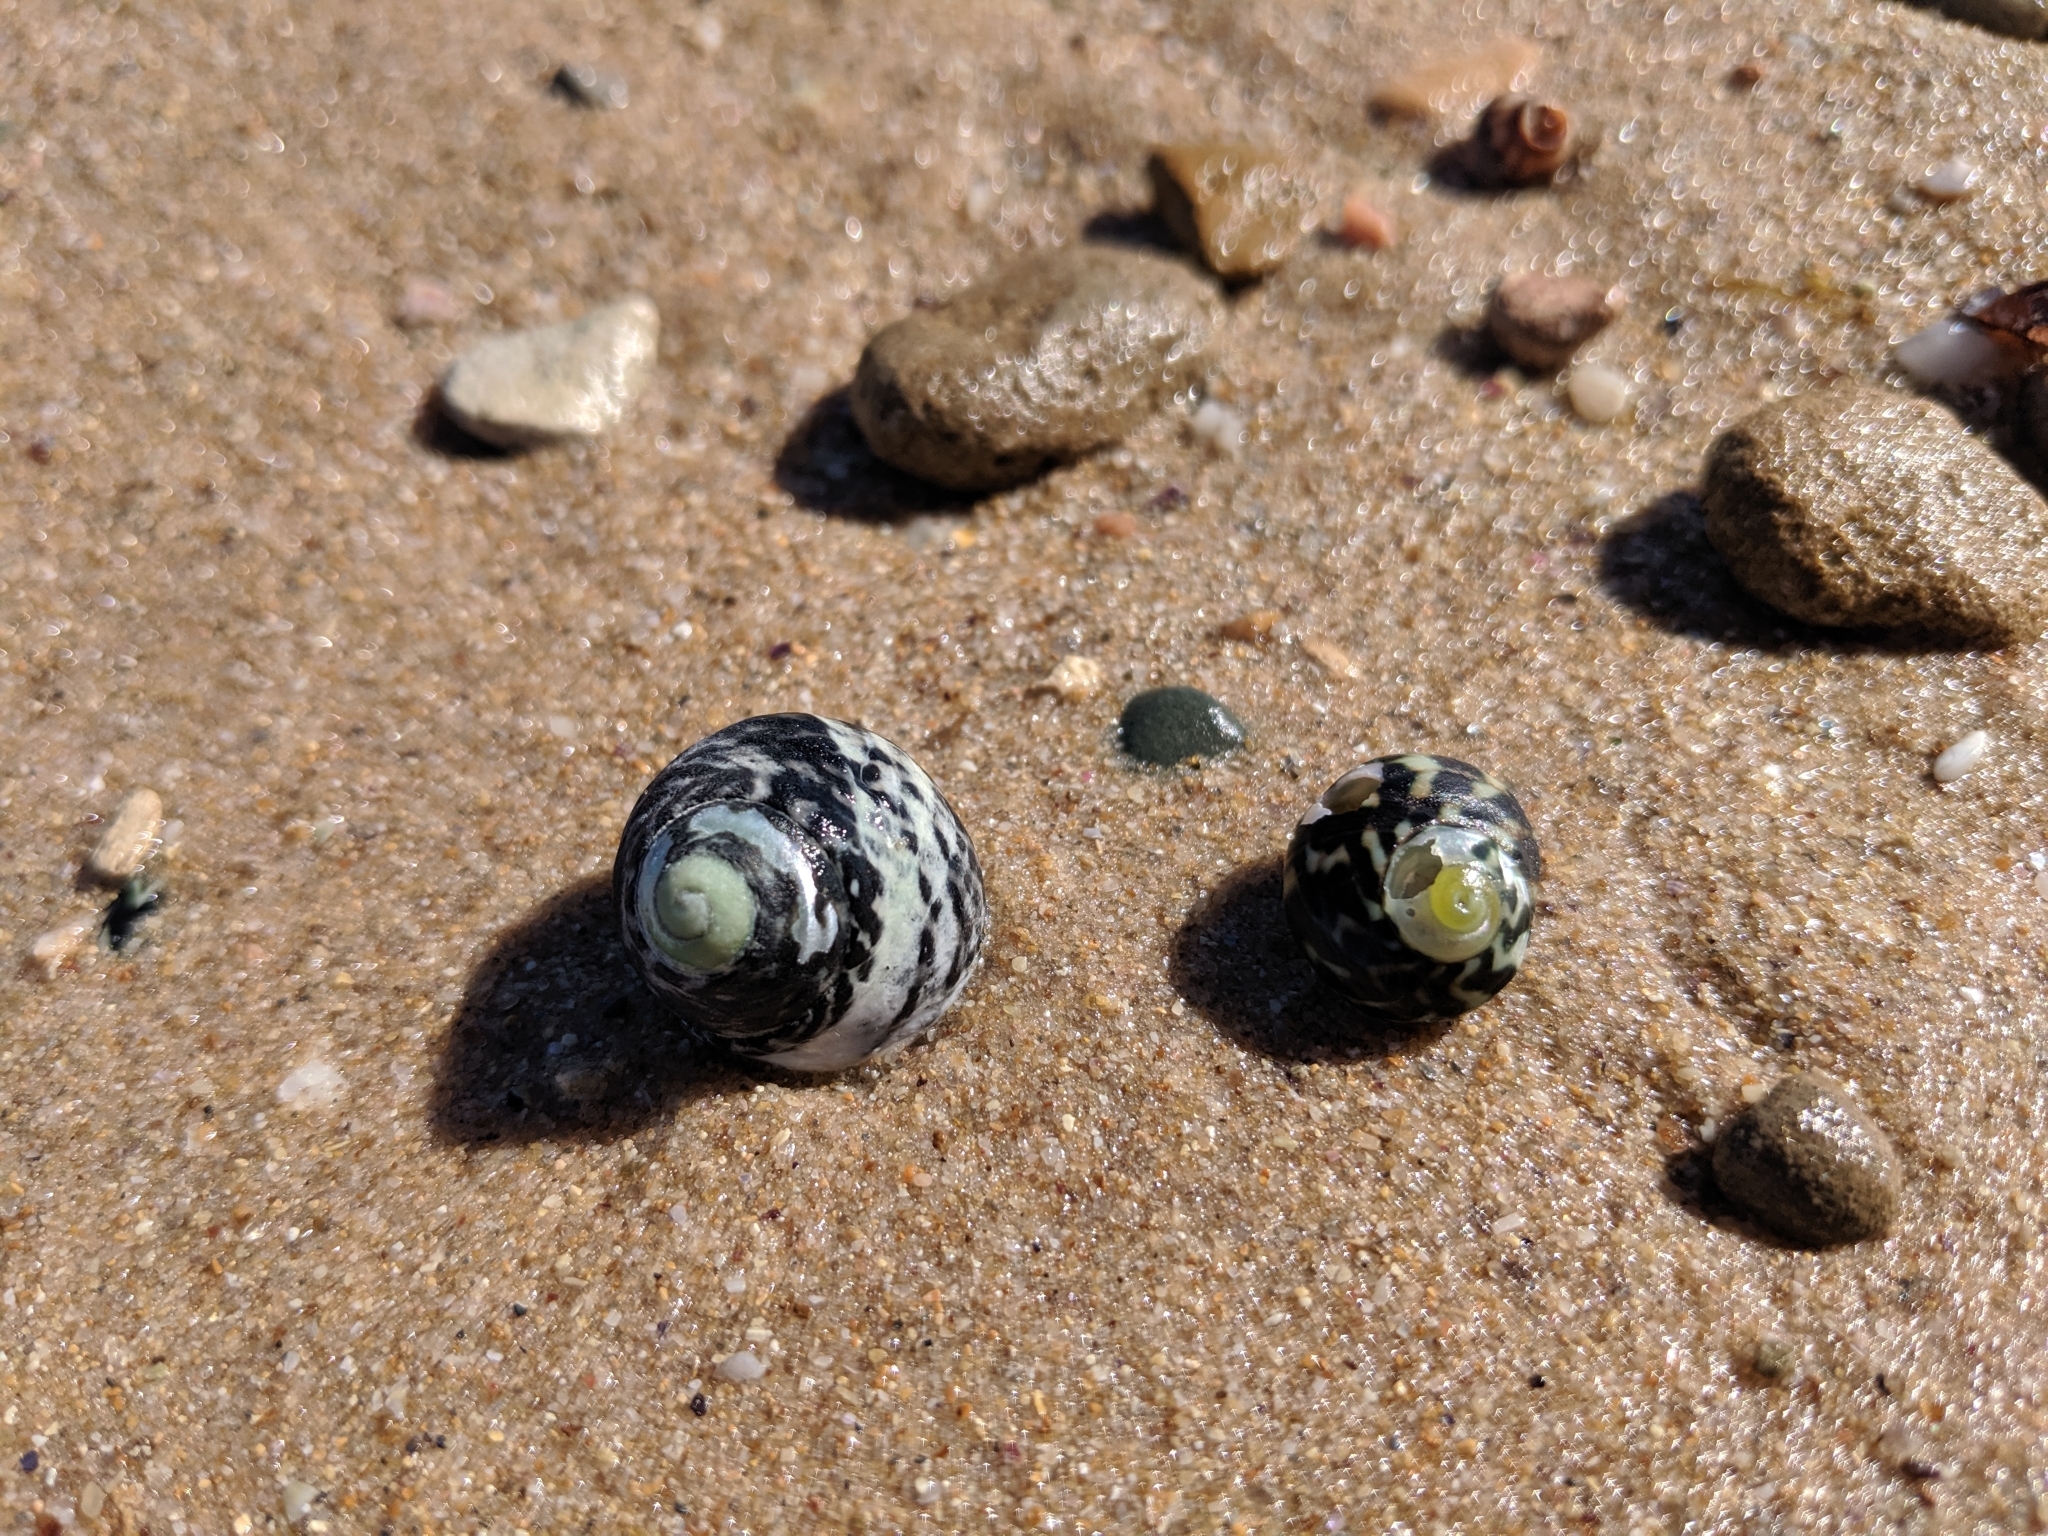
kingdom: Animalia
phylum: Mollusca
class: Gastropoda
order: Trochida
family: Turbinidae
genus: Lunella
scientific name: Lunella undulata
